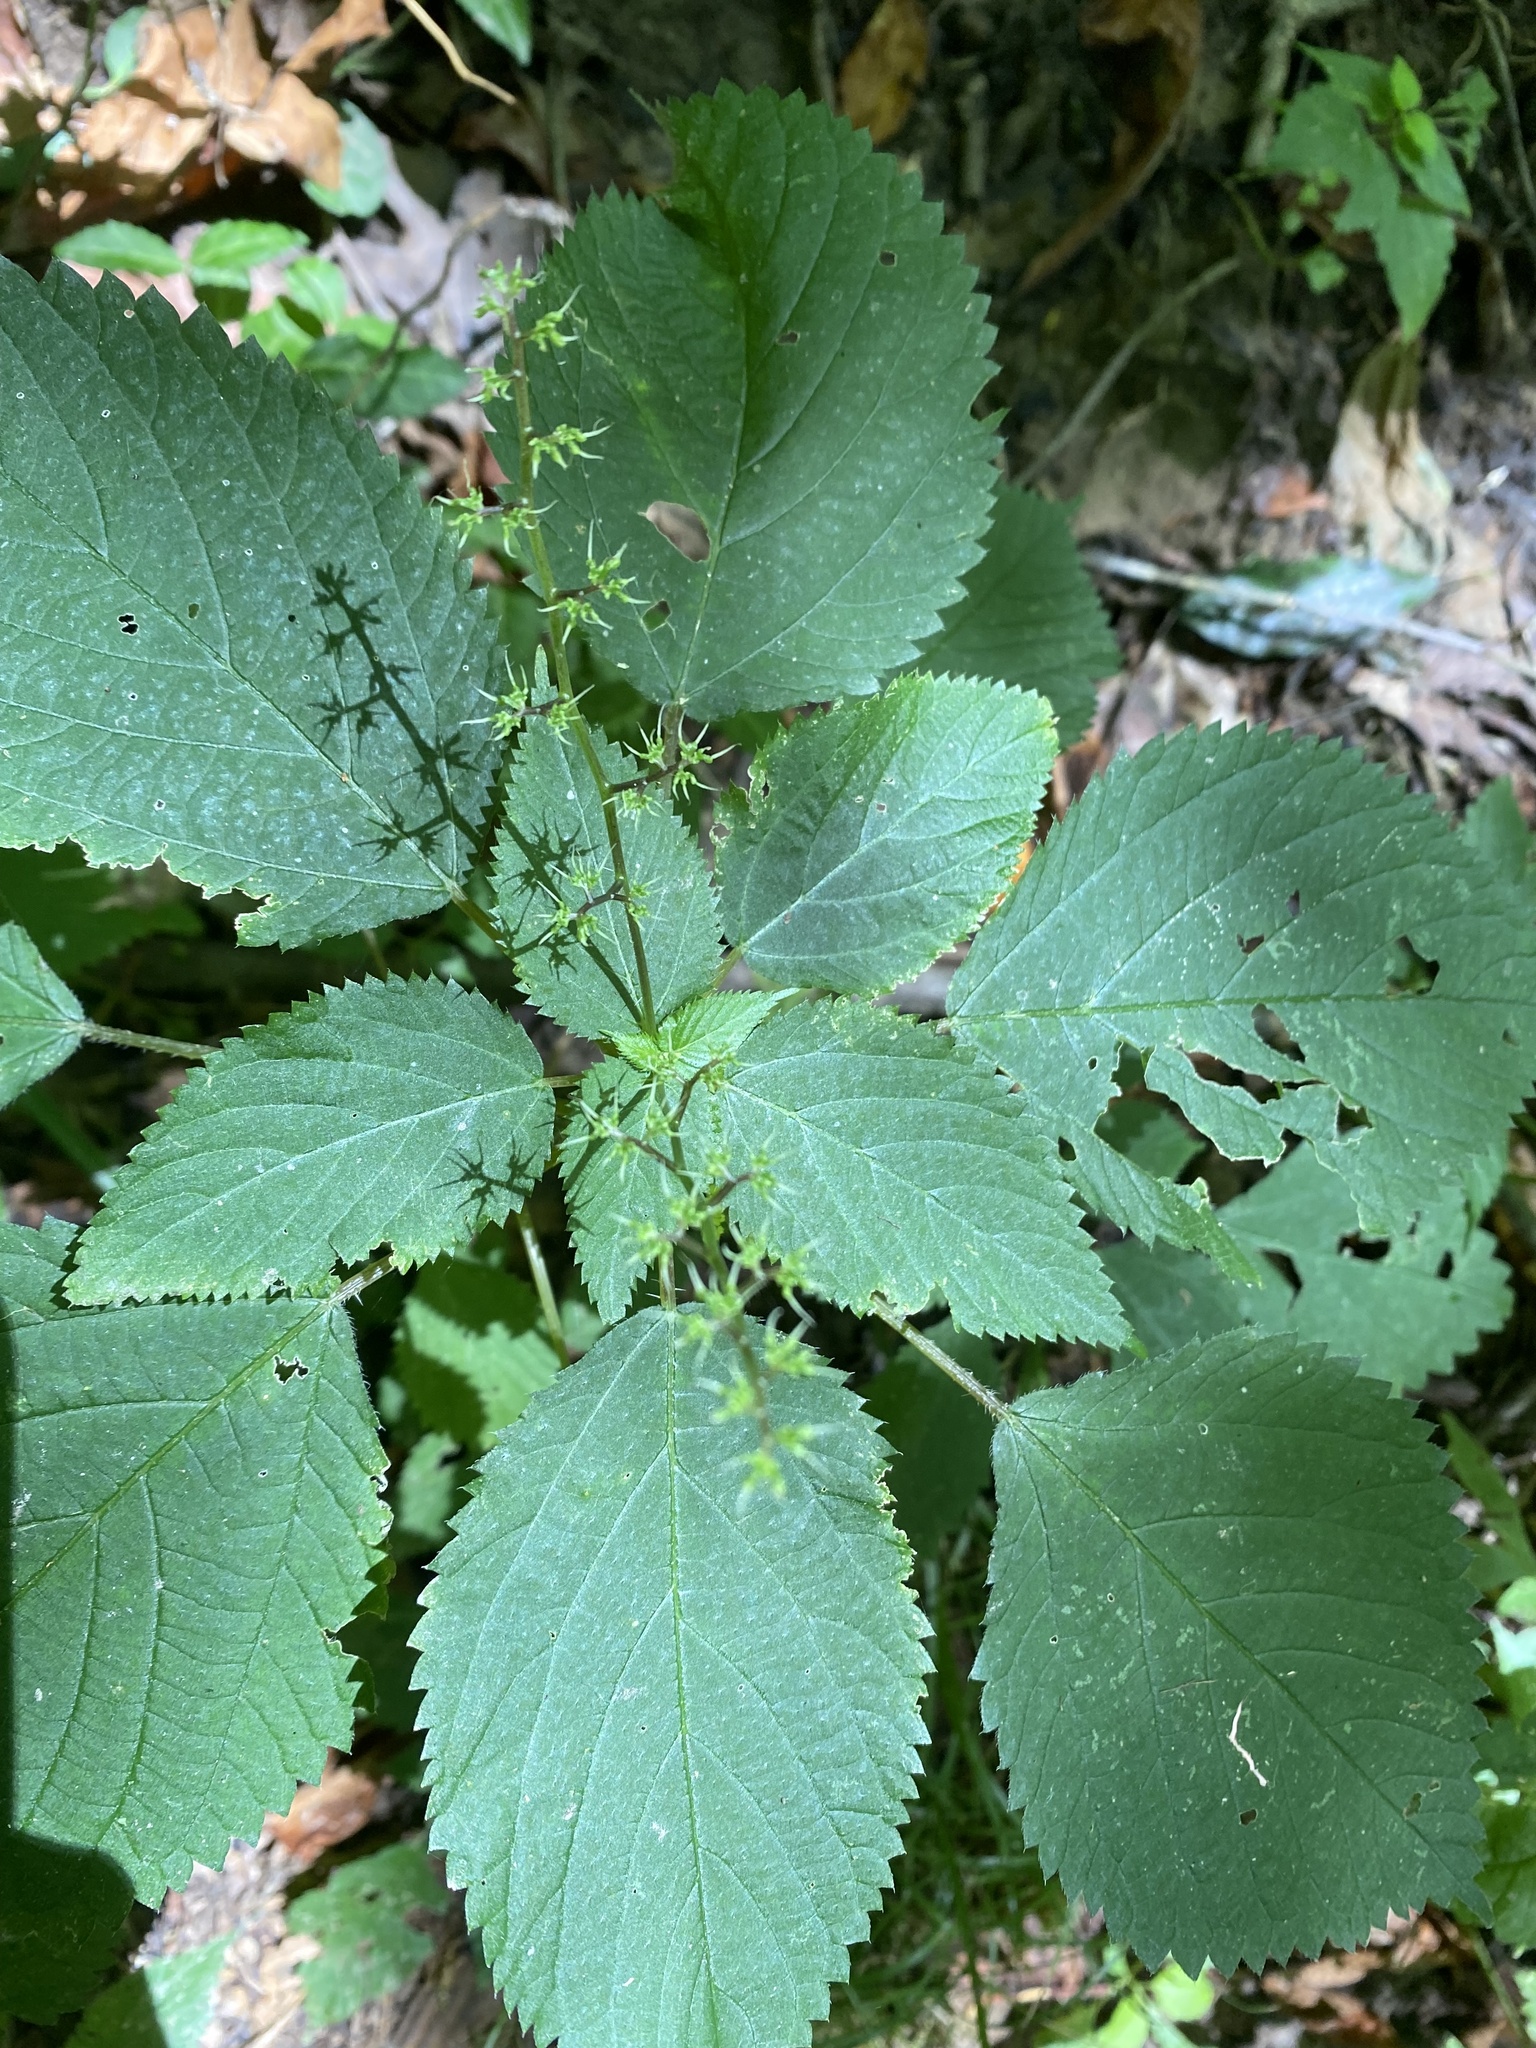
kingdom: Plantae
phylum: Tracheophyta
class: Magnoliopsida
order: Rosales
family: Urticaceae
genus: Laportea
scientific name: Laportea canadensis
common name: Canada nettle
